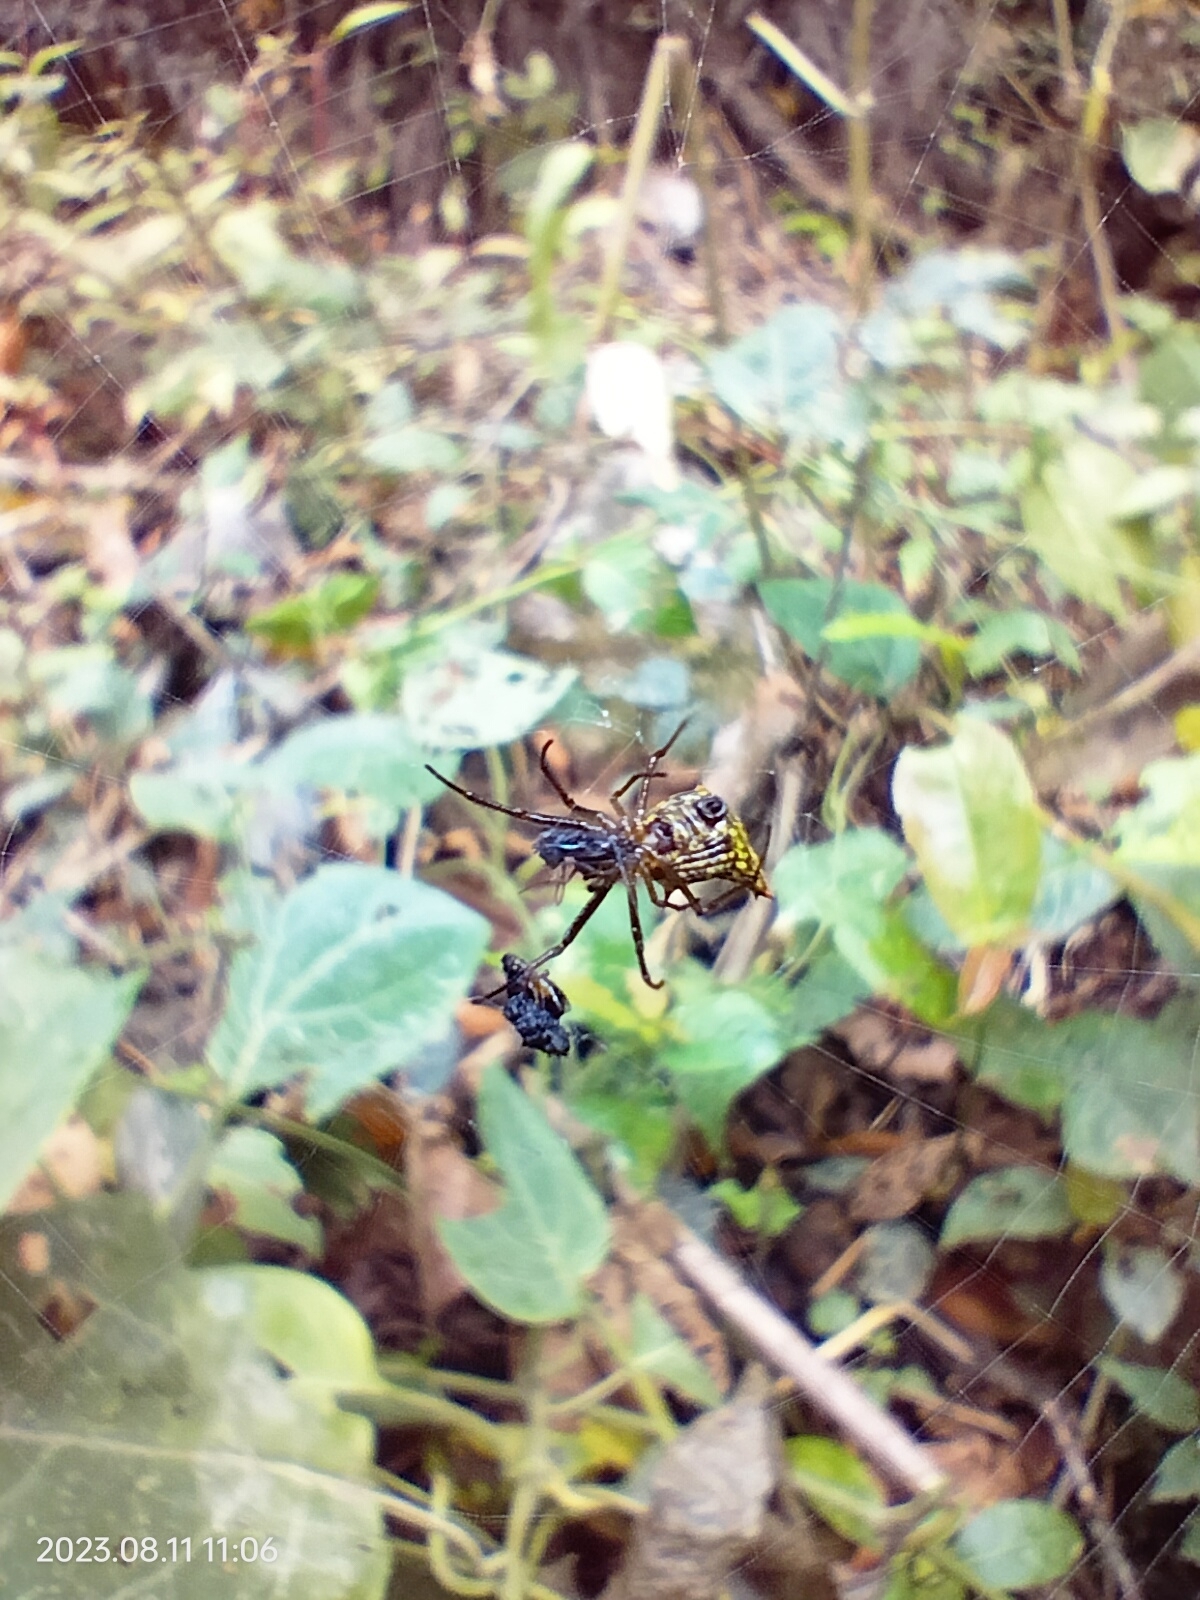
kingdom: Animalia
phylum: Arthropoda
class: Arachnida
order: Araneae
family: Araneidae
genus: Micrathena
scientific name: Micrathena crassa
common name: Orb weavers
